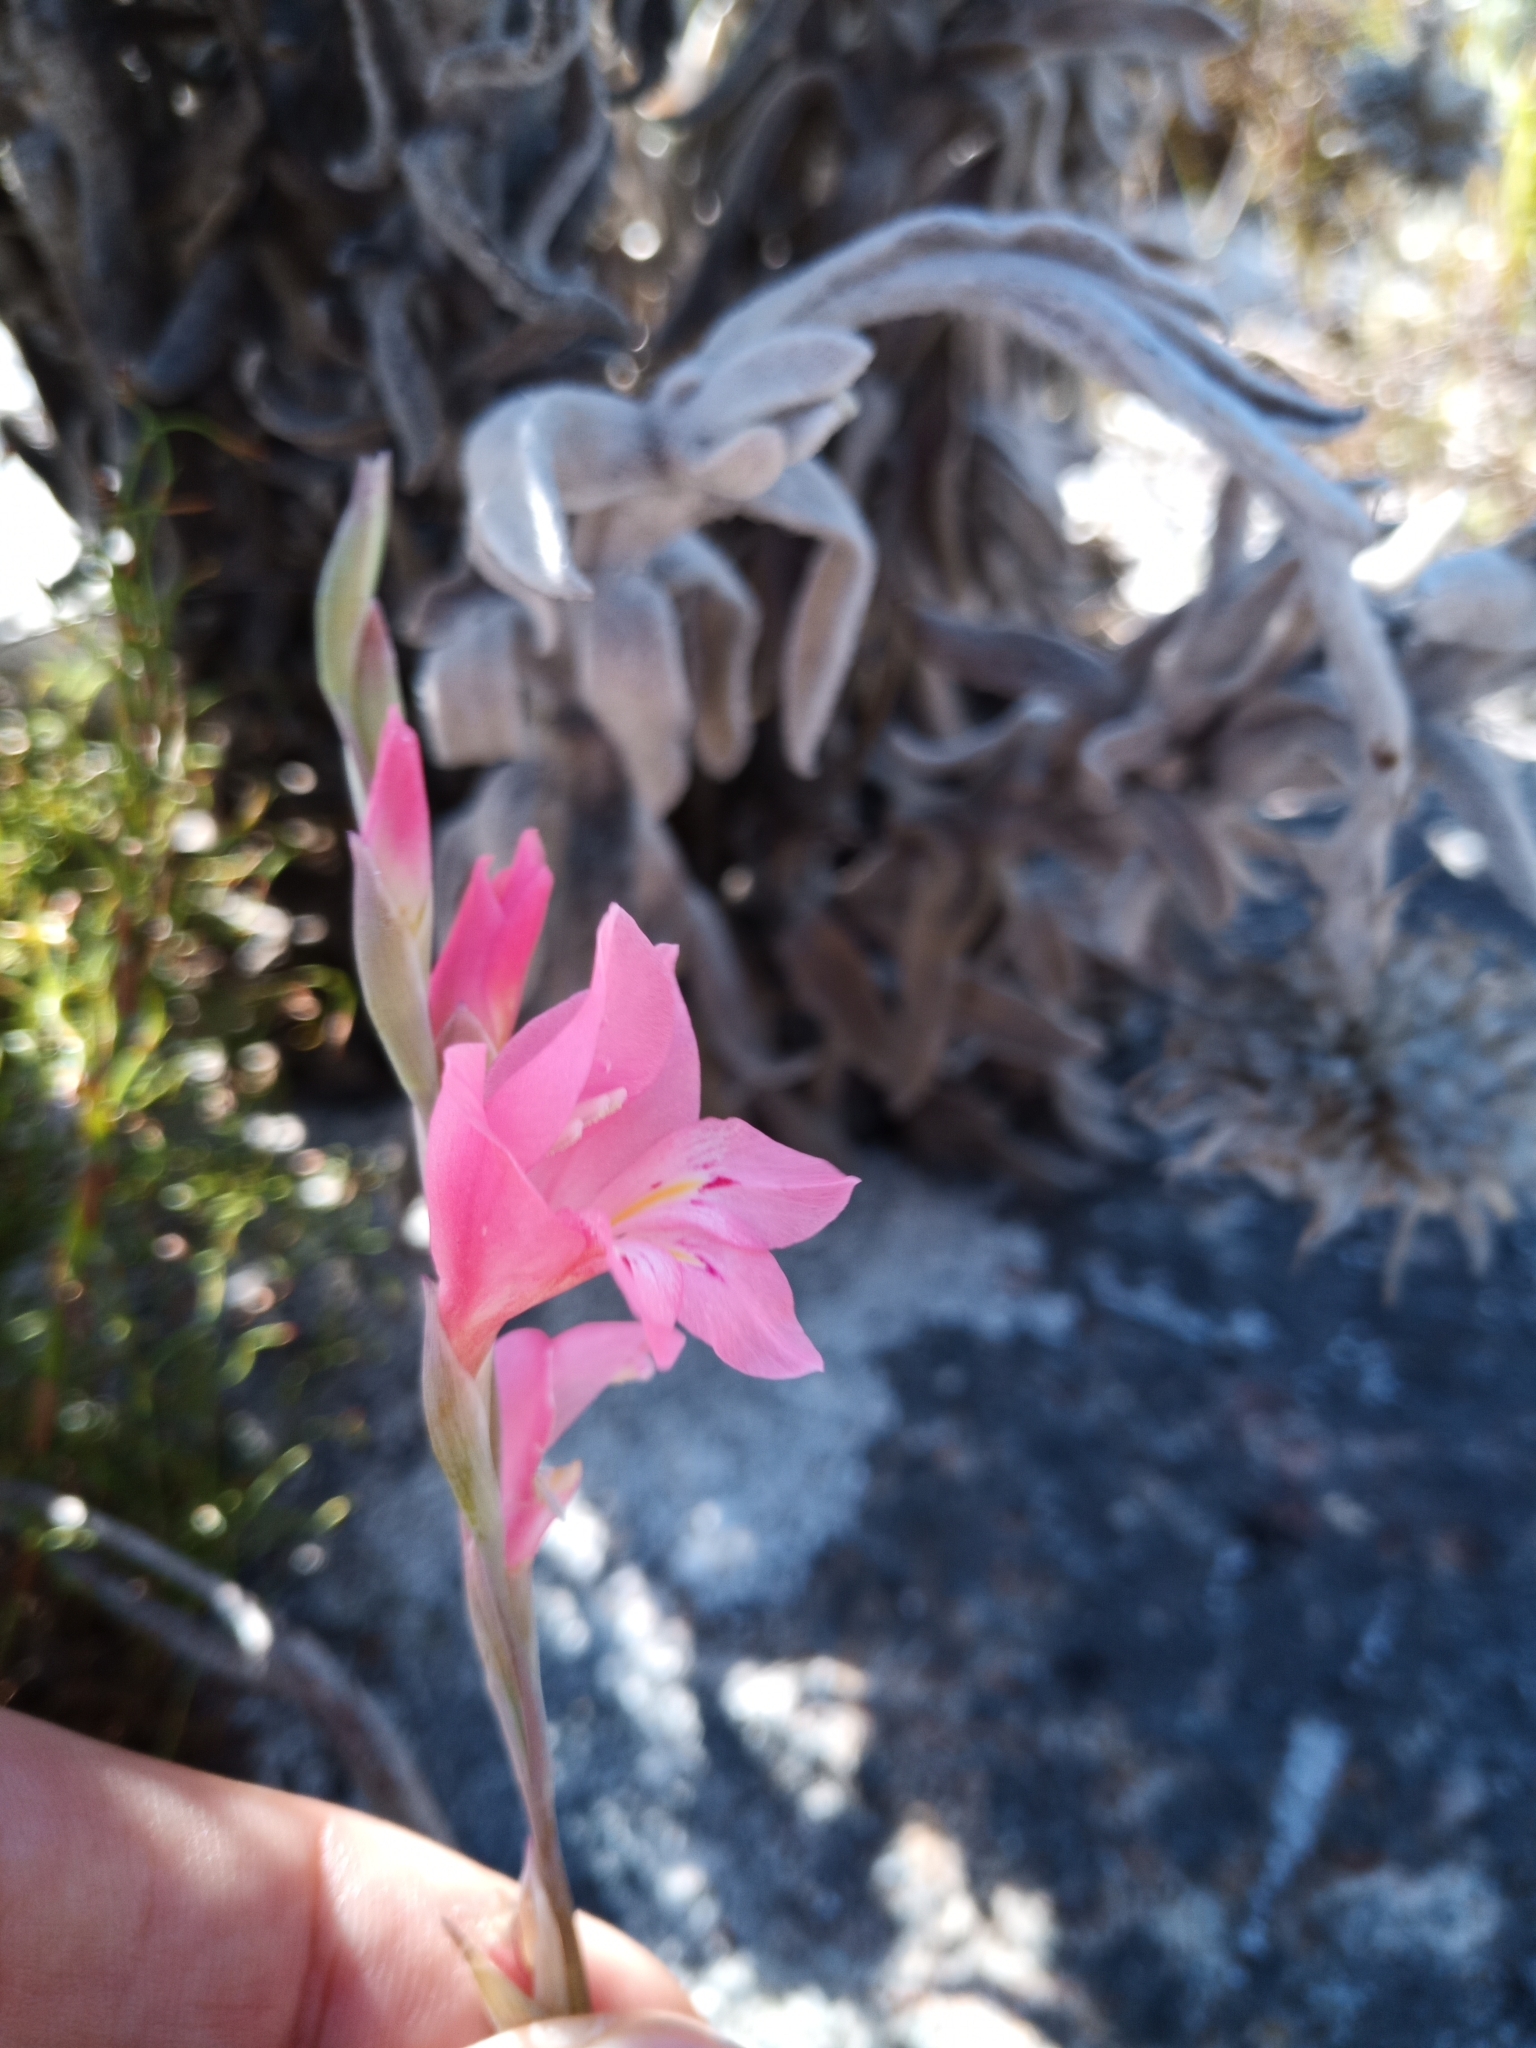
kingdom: Plantae
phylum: Tracheophyta
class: Liliopsida
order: Asparagales
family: Iridaceae
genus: Gladiolus
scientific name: Gladiolus brevifolius
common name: March pypie
